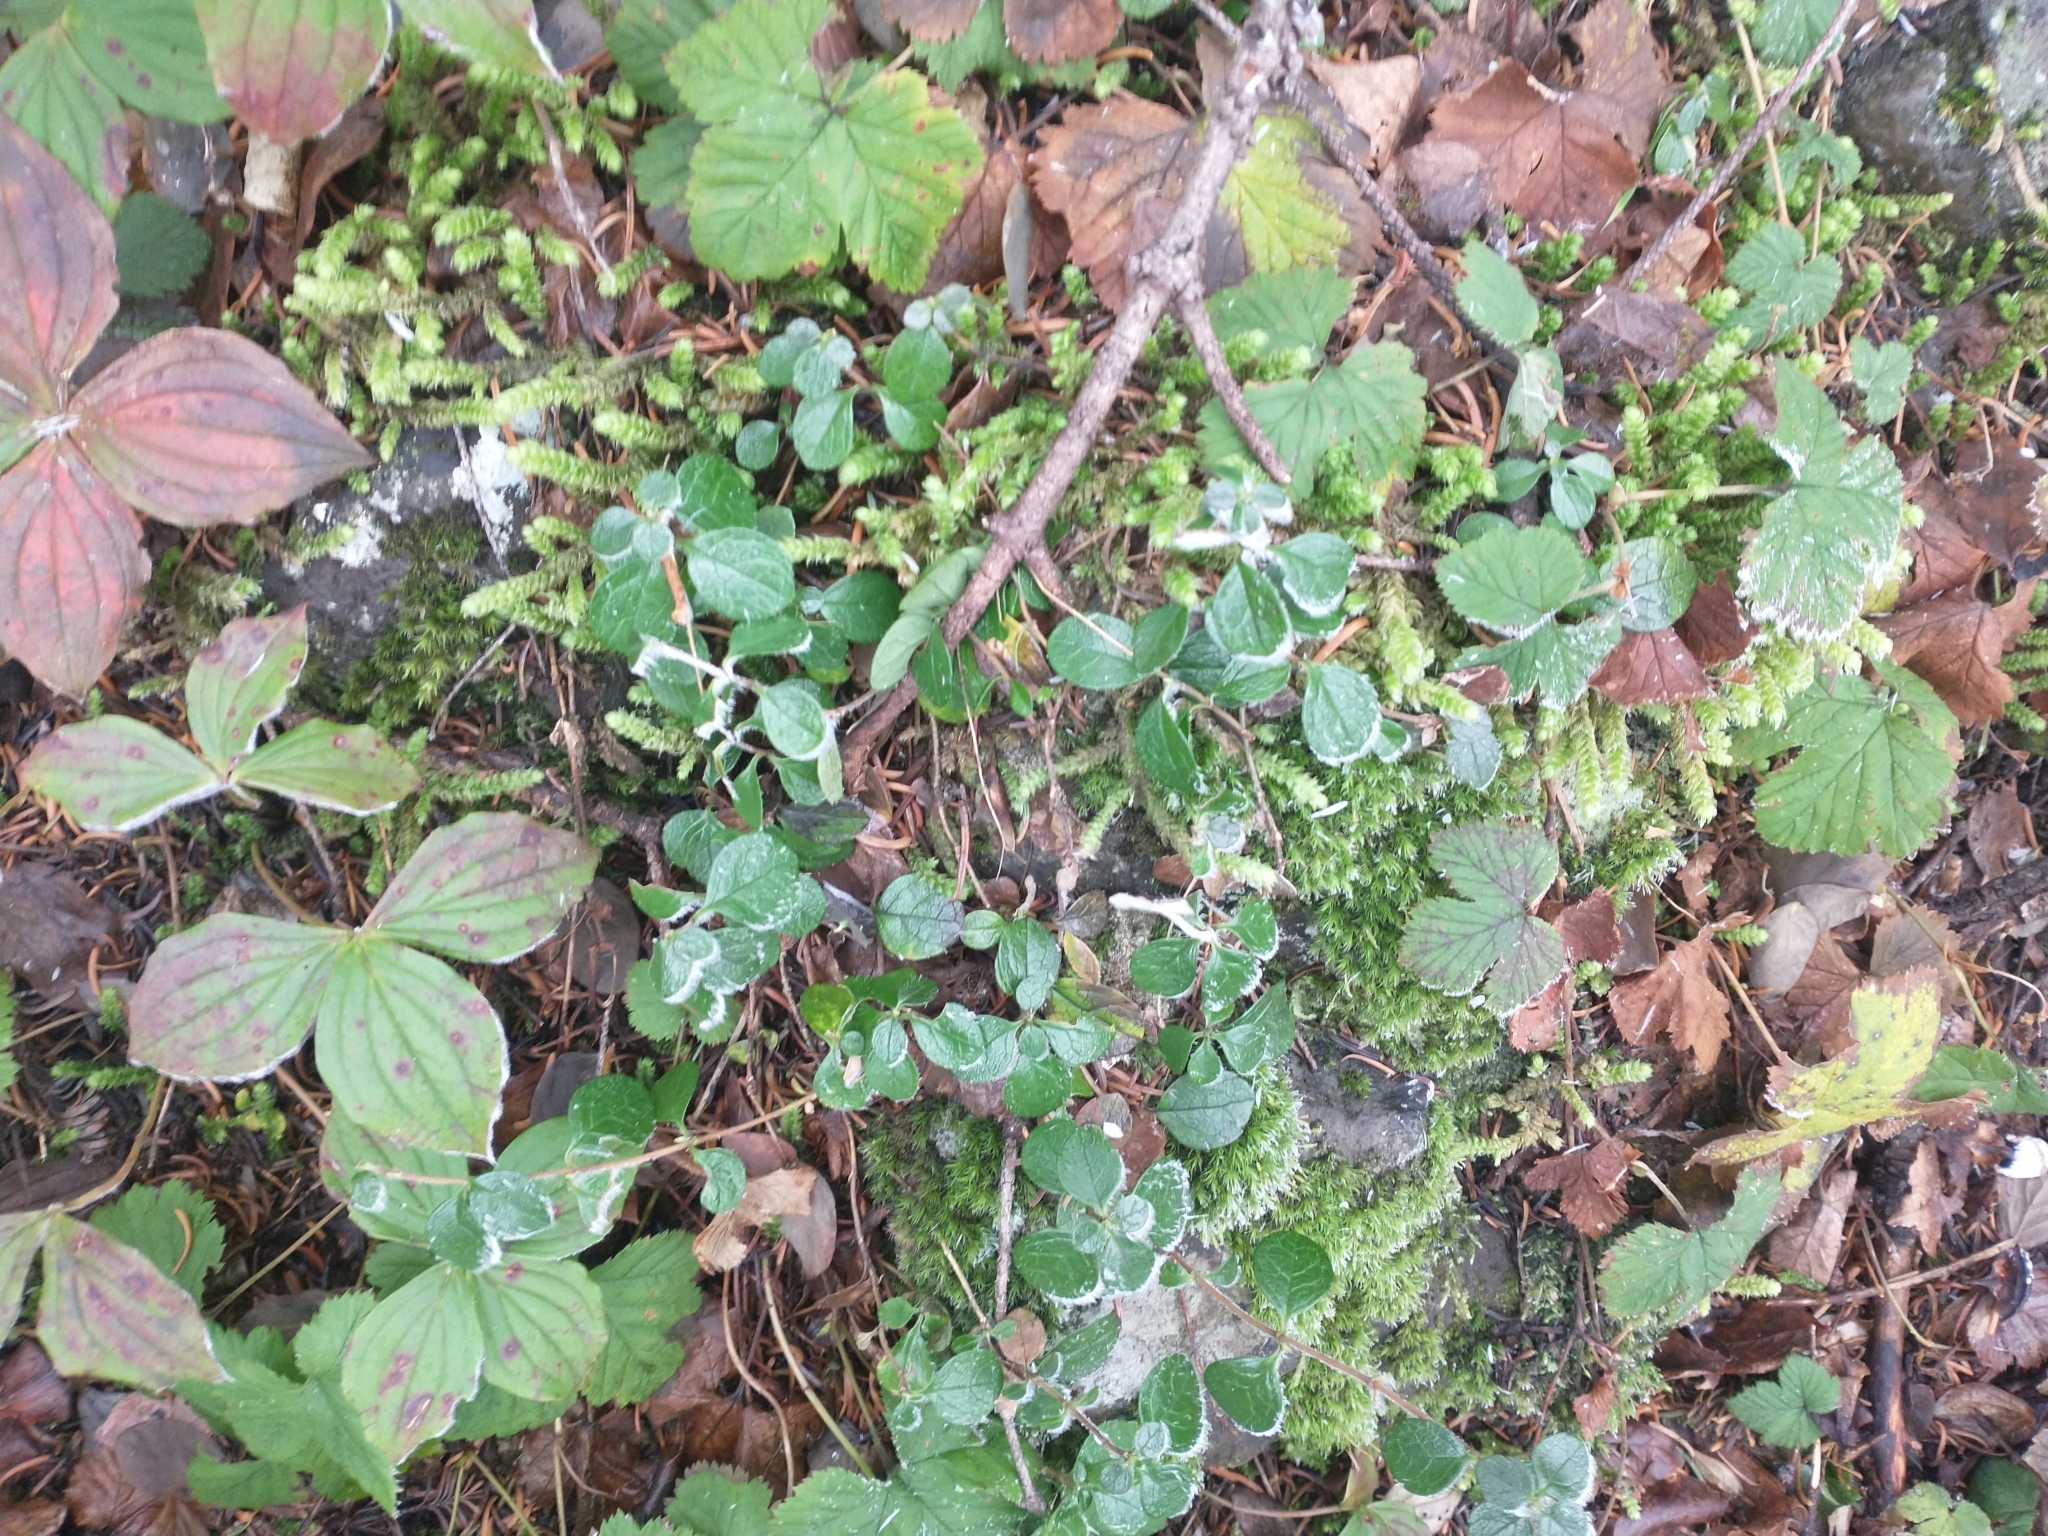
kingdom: Plantae
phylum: Tracheophyta
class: Magnoliopsida
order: Dipsacales
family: Caprifoliaceae
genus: Linnaea
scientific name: Linnaea borealis
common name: Twinflower
